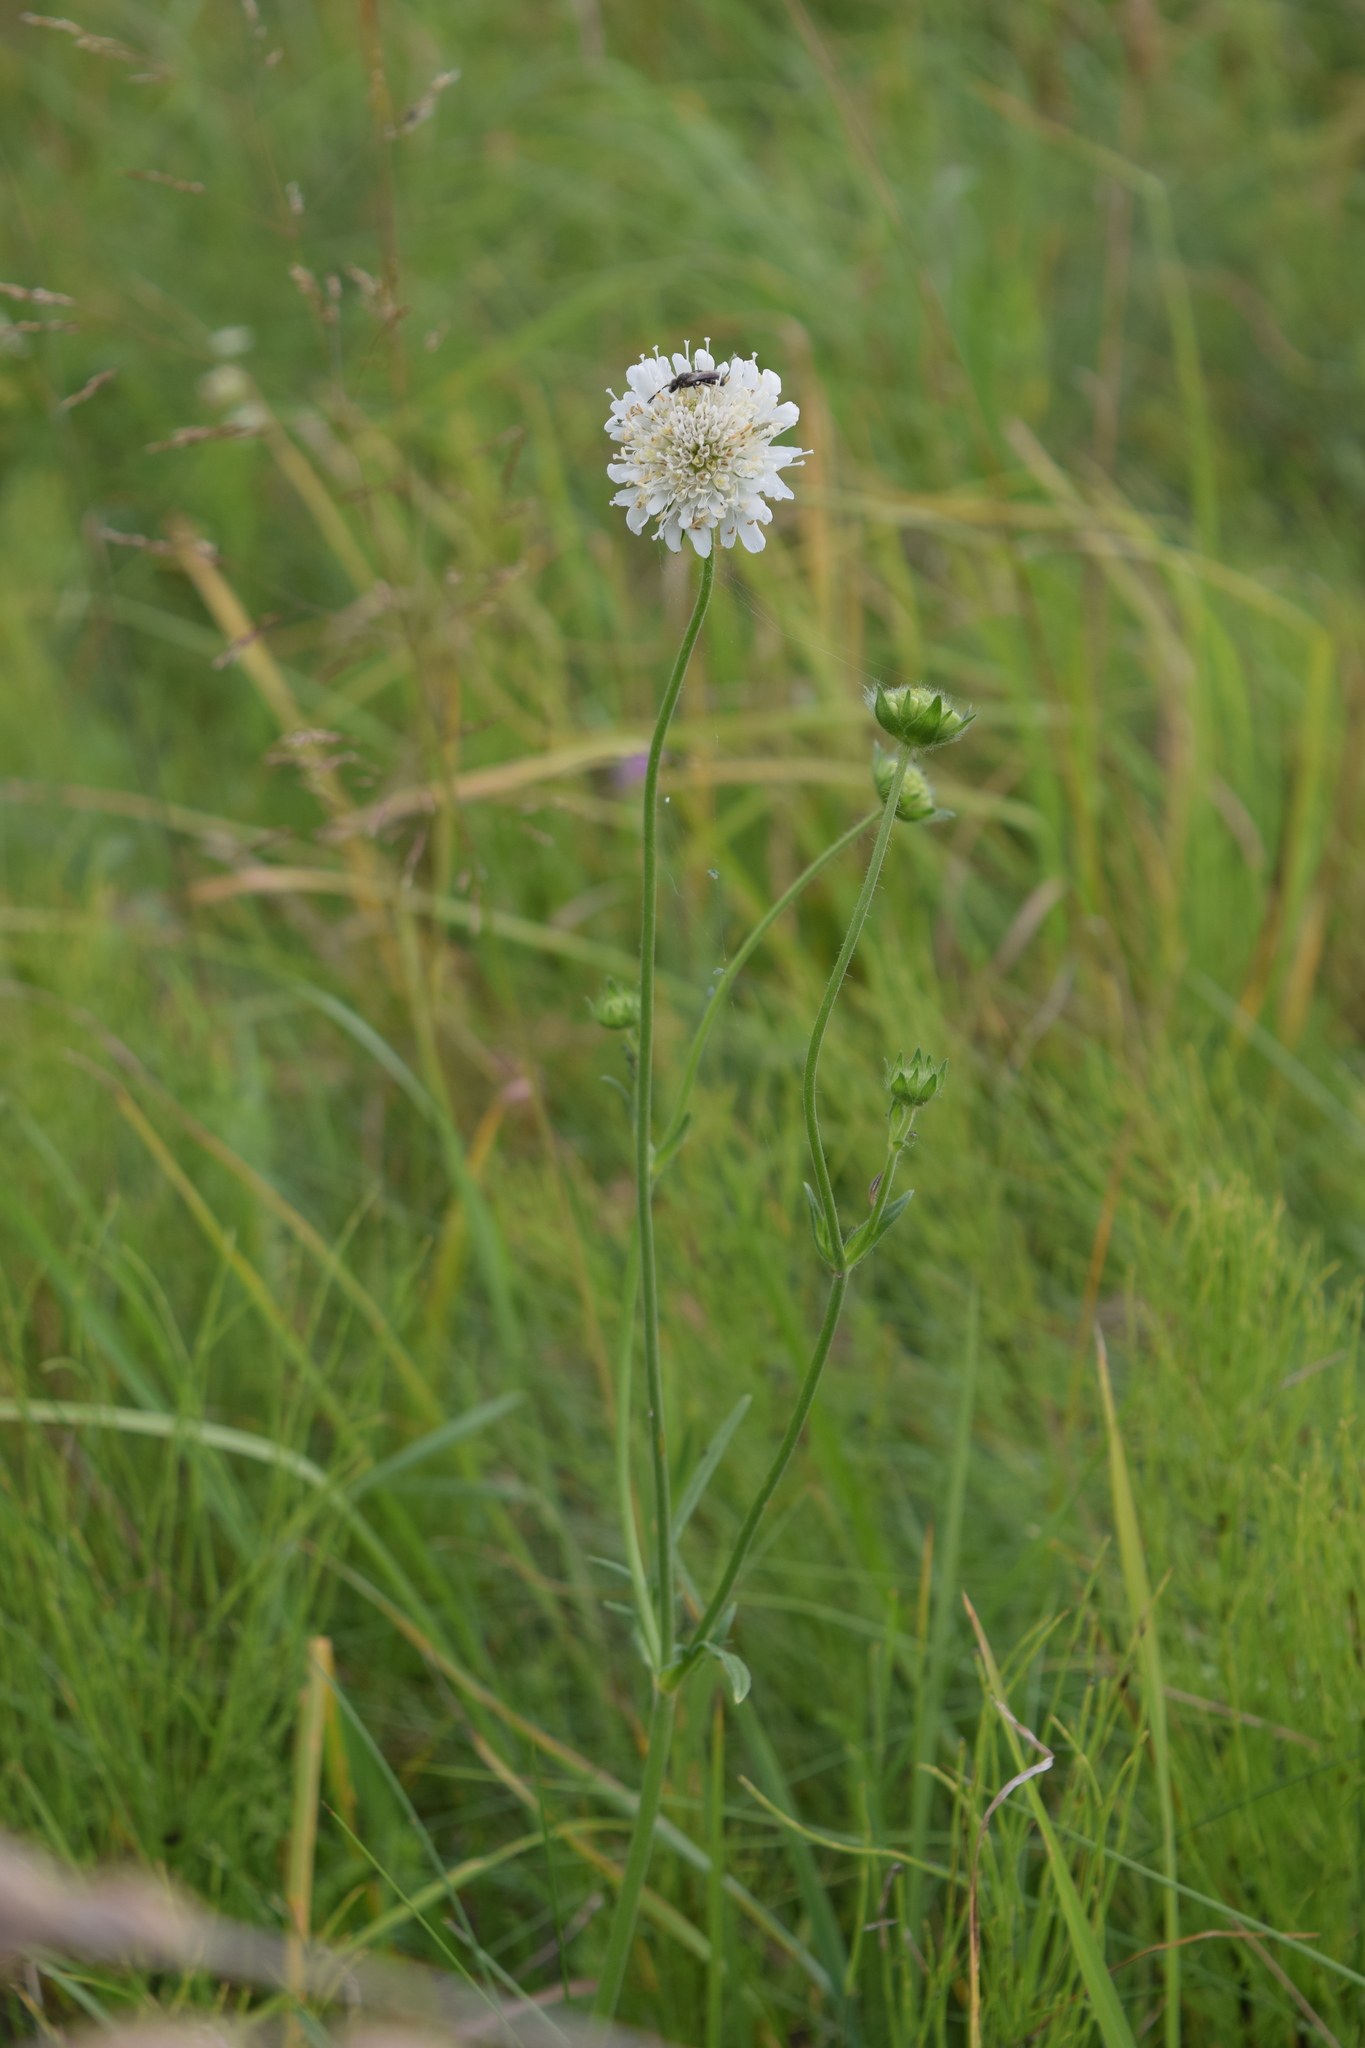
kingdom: Plantae
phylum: Tracheophyta
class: Magnoliopsida
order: Dipsacales
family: Caprifoliaceae
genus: Knautia
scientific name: Knautia arvensis
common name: Field scabiosa
